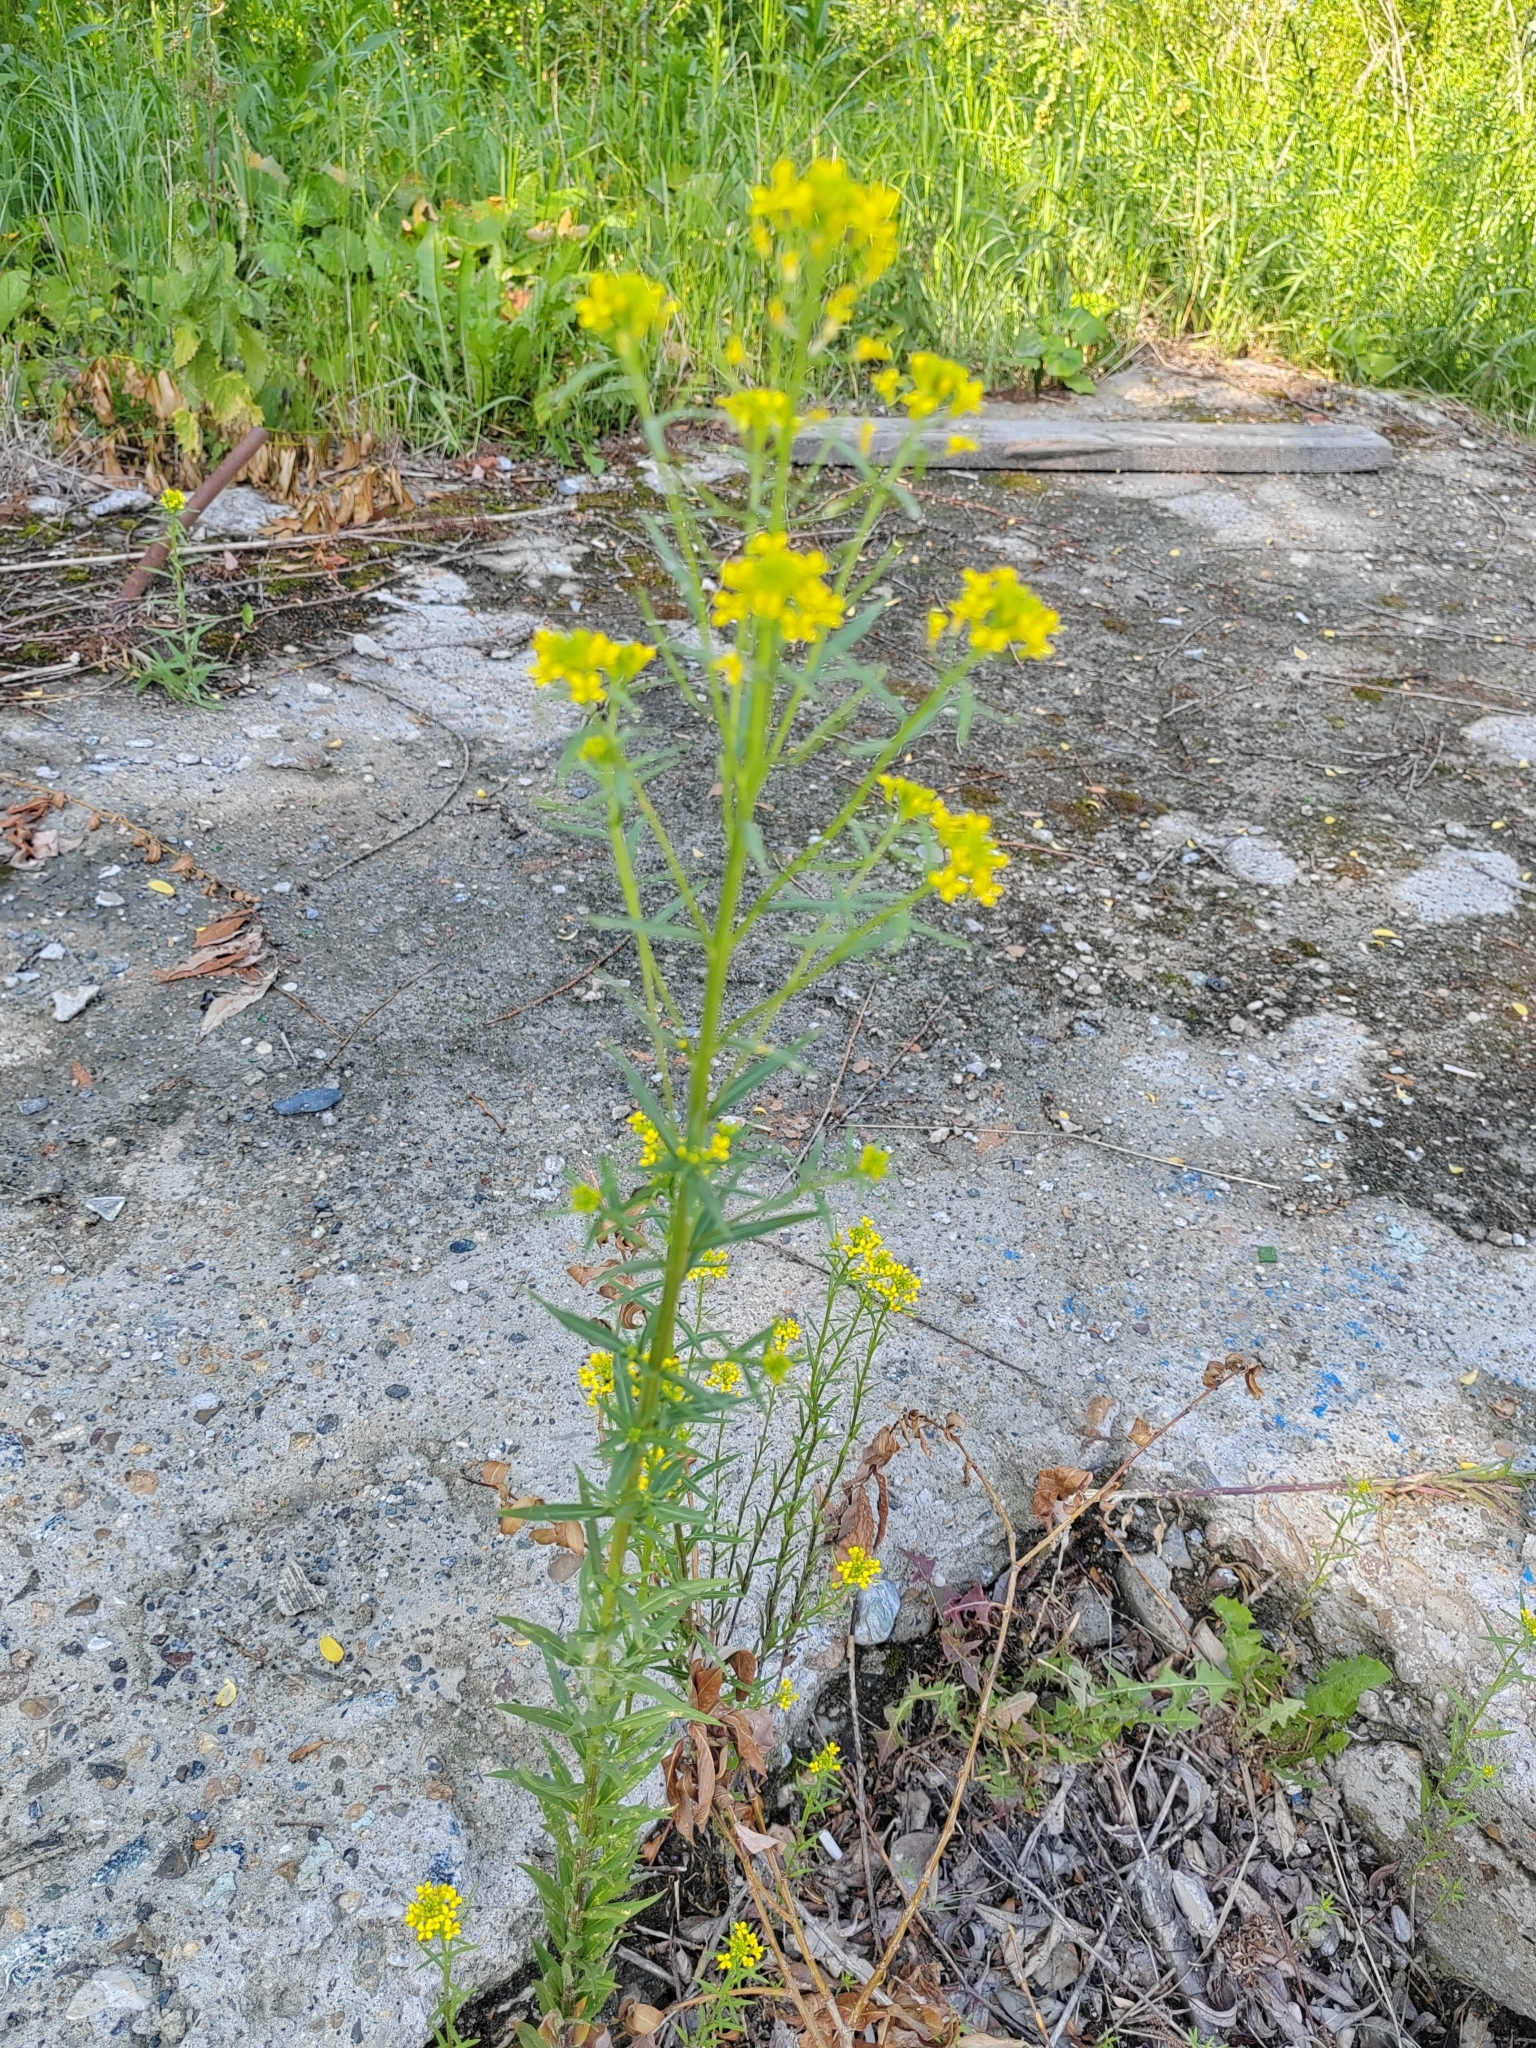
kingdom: Plantae
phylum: Tracheophyta
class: Magnoliopsida
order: Brassicales
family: Brassicaceae
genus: Erysimum
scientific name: Erysimum cheiranthoides
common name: Treacle mustard
